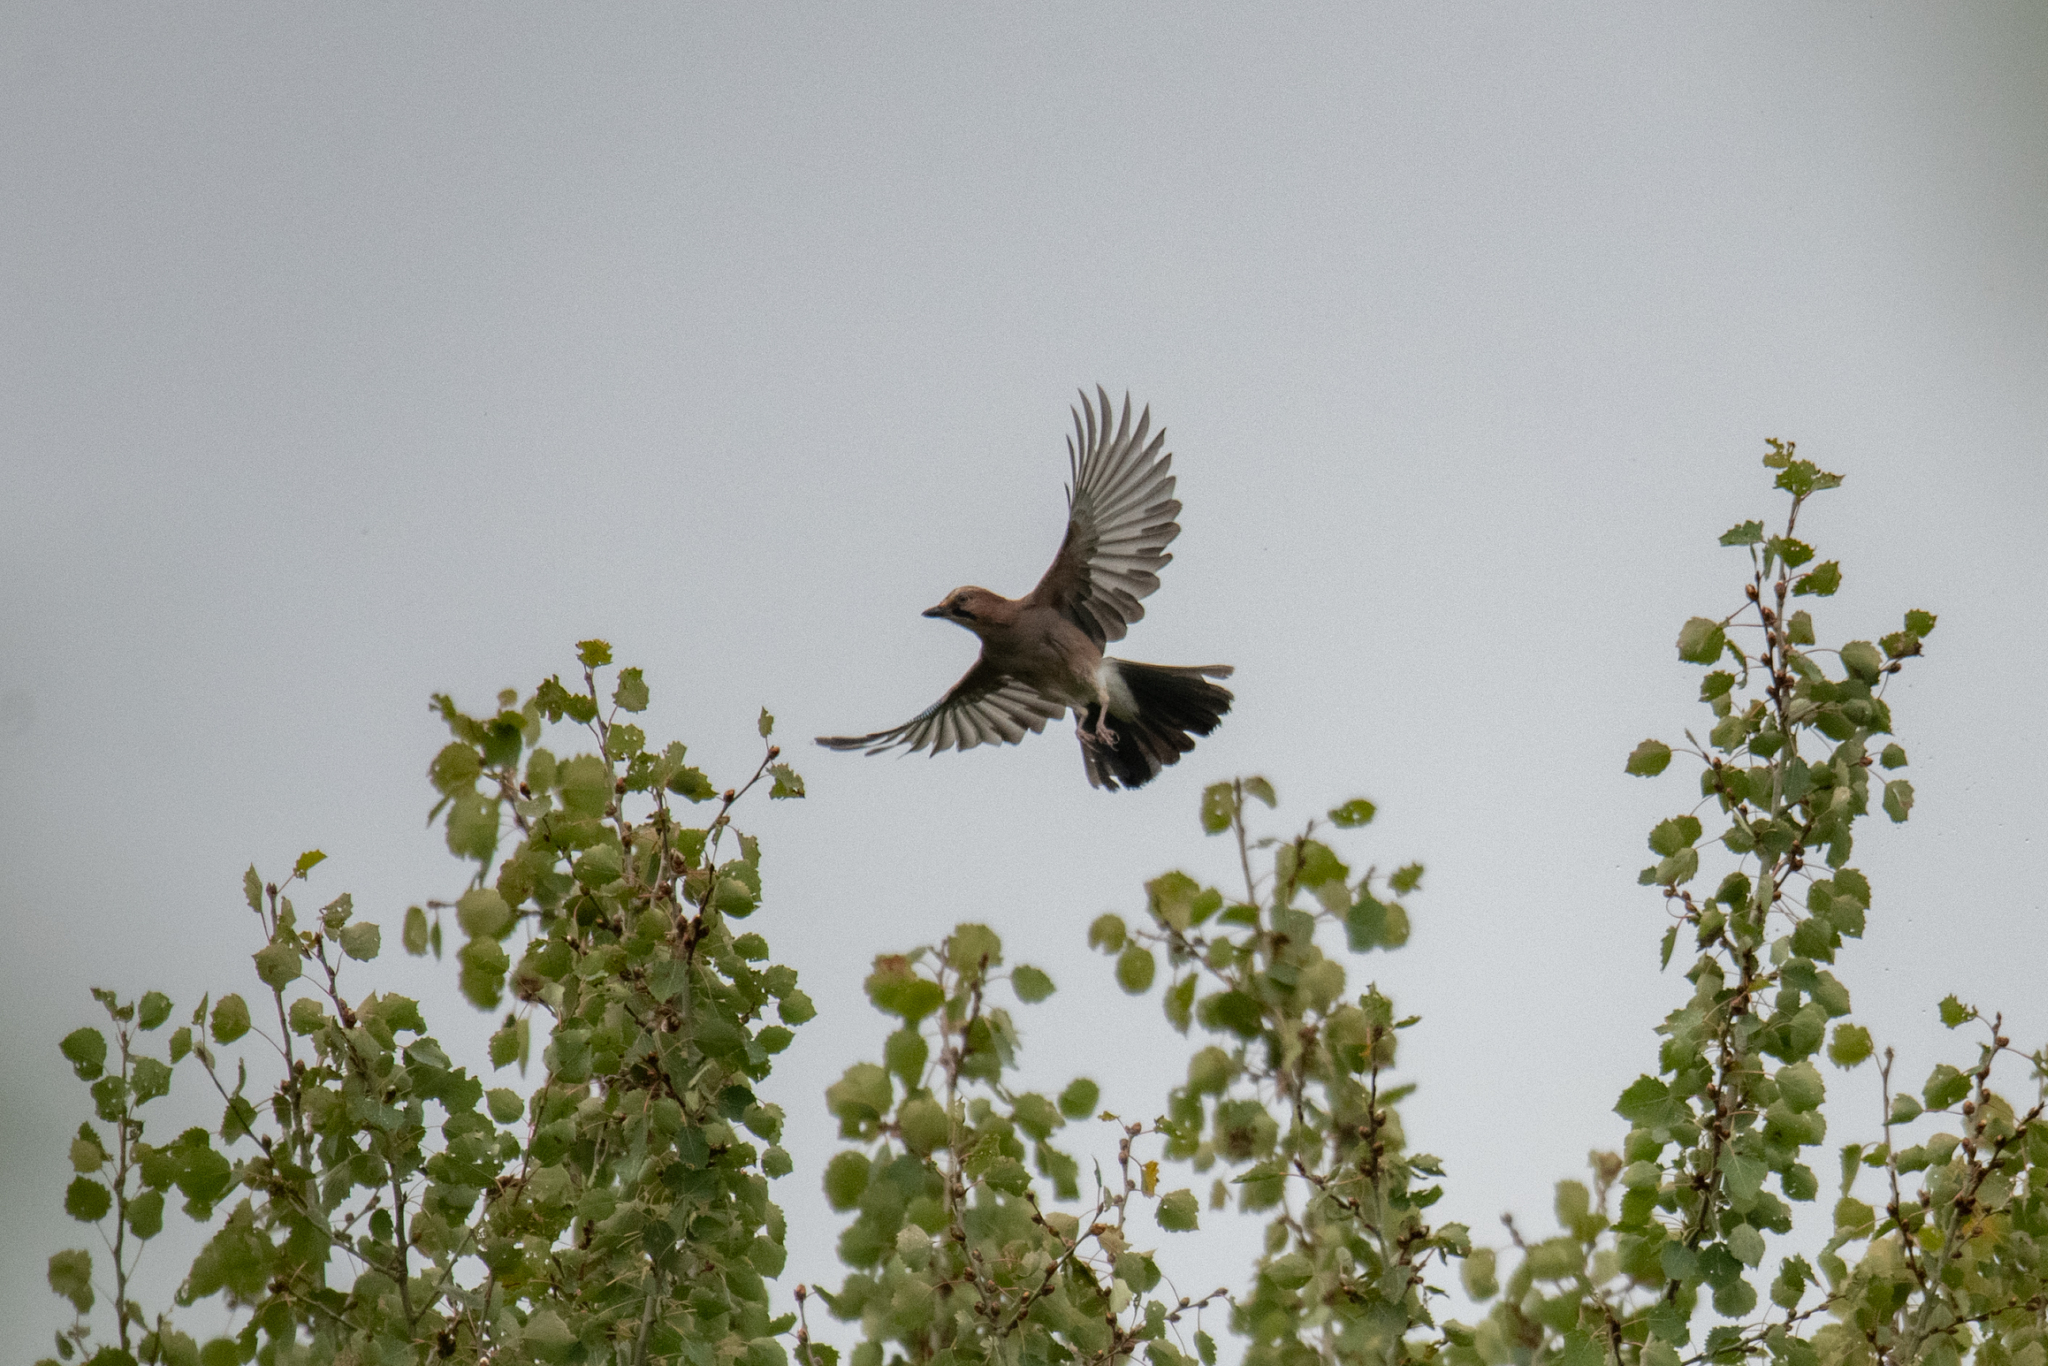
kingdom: Animalia
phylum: Chordata
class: Aves
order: Passeriformes
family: Corvidae
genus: Garrulus
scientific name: Garrulus glandarius
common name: Eurasian jay
